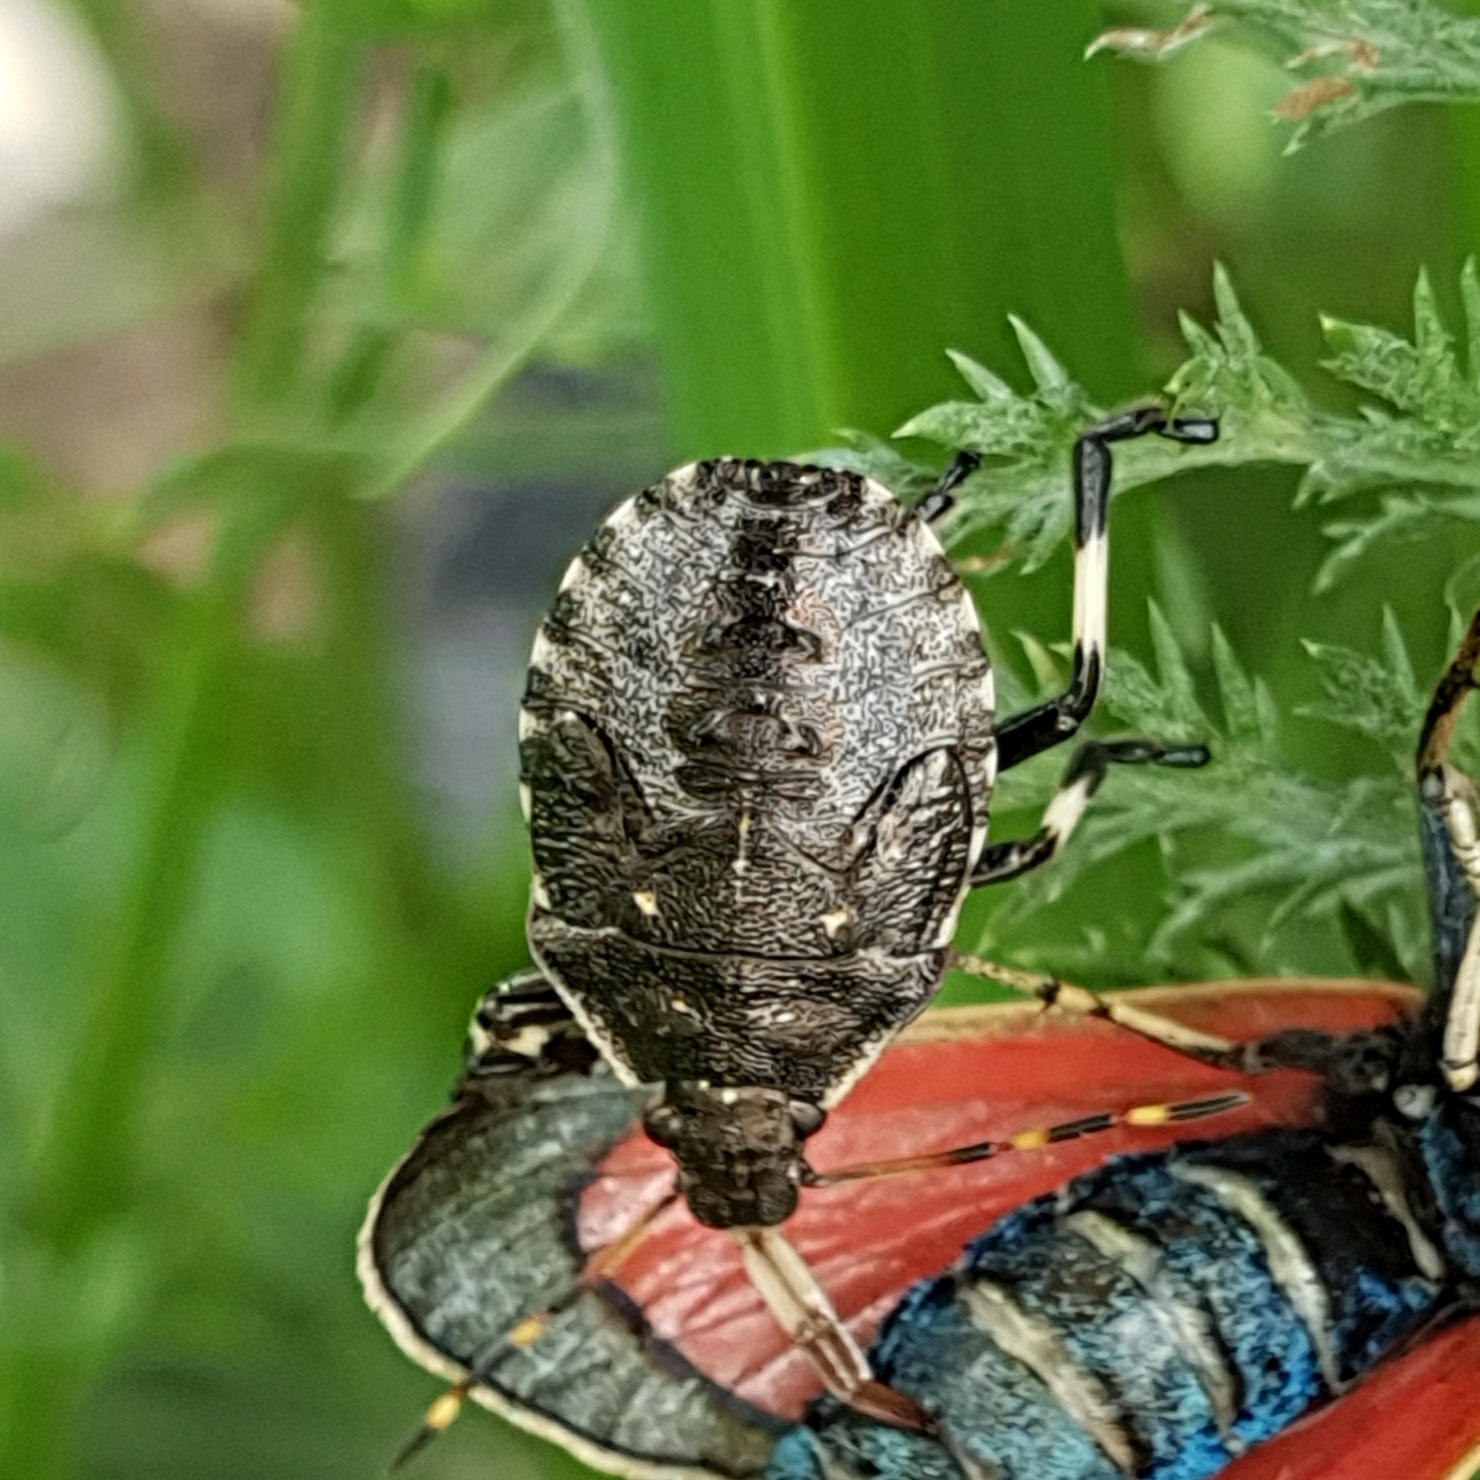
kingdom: Animalia
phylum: Arthropoda
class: Insecta
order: Hemiptera
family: Pentatomidae
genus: Picromerus
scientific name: Picromerus bidens
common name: Spiked shieldbug
